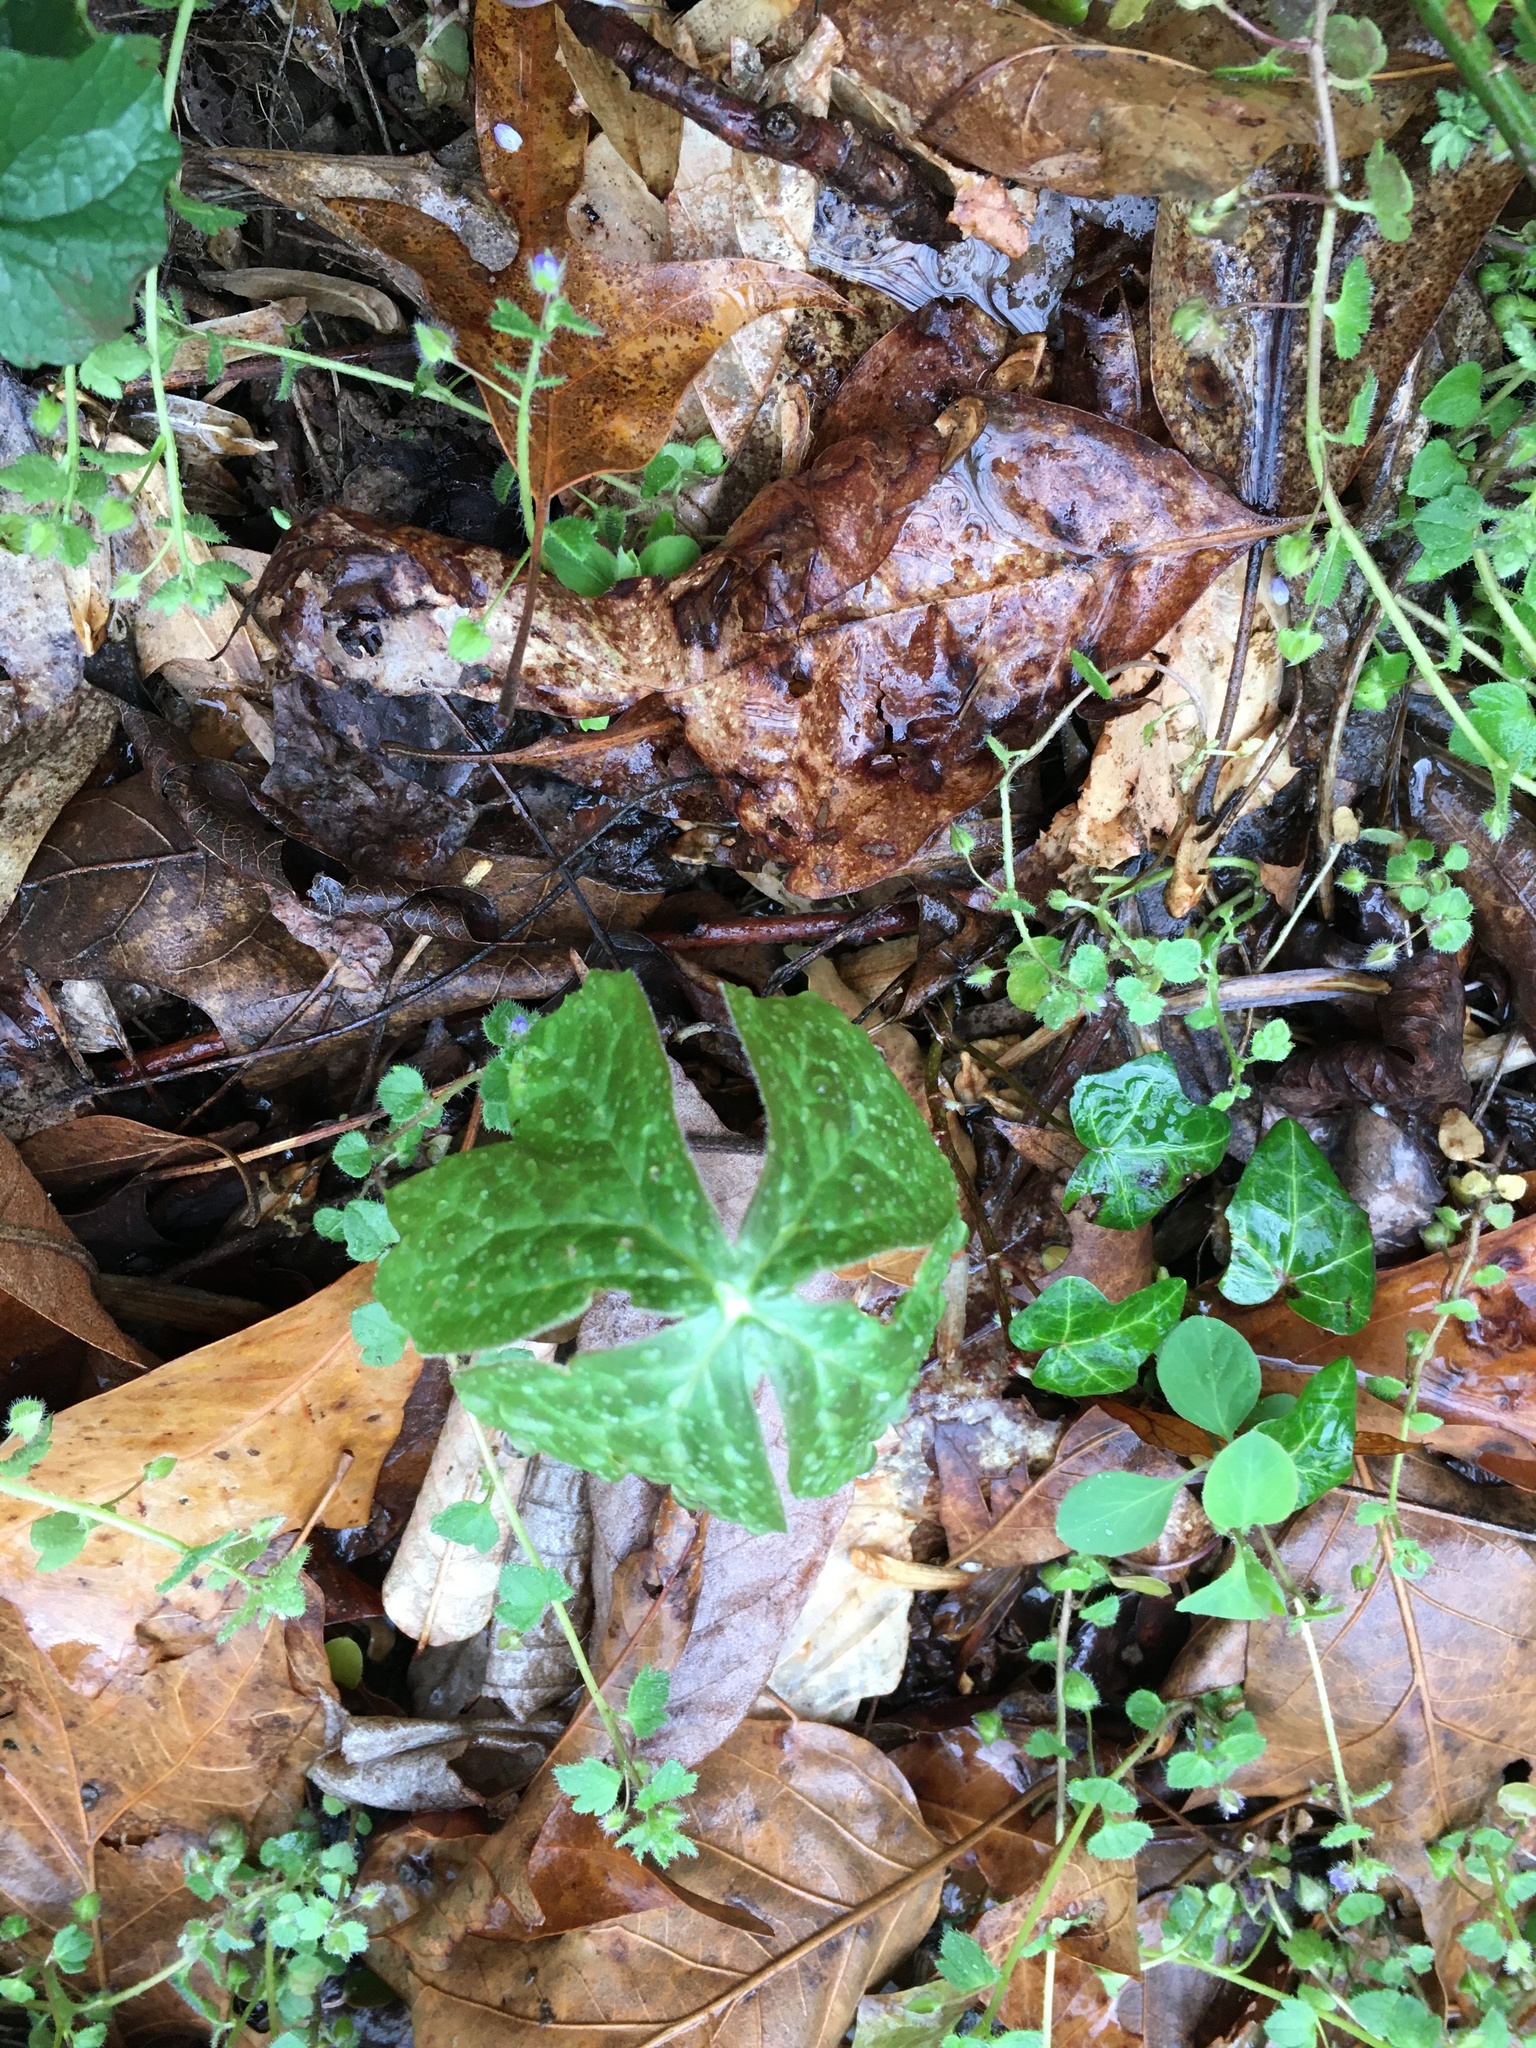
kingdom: Plantae
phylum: Tracheophyta
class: Magnoliopsida
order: Ranunculales
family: Berberidaceae
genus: Podophyllum
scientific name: Podophyllum peltatum
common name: Wild mandrake
